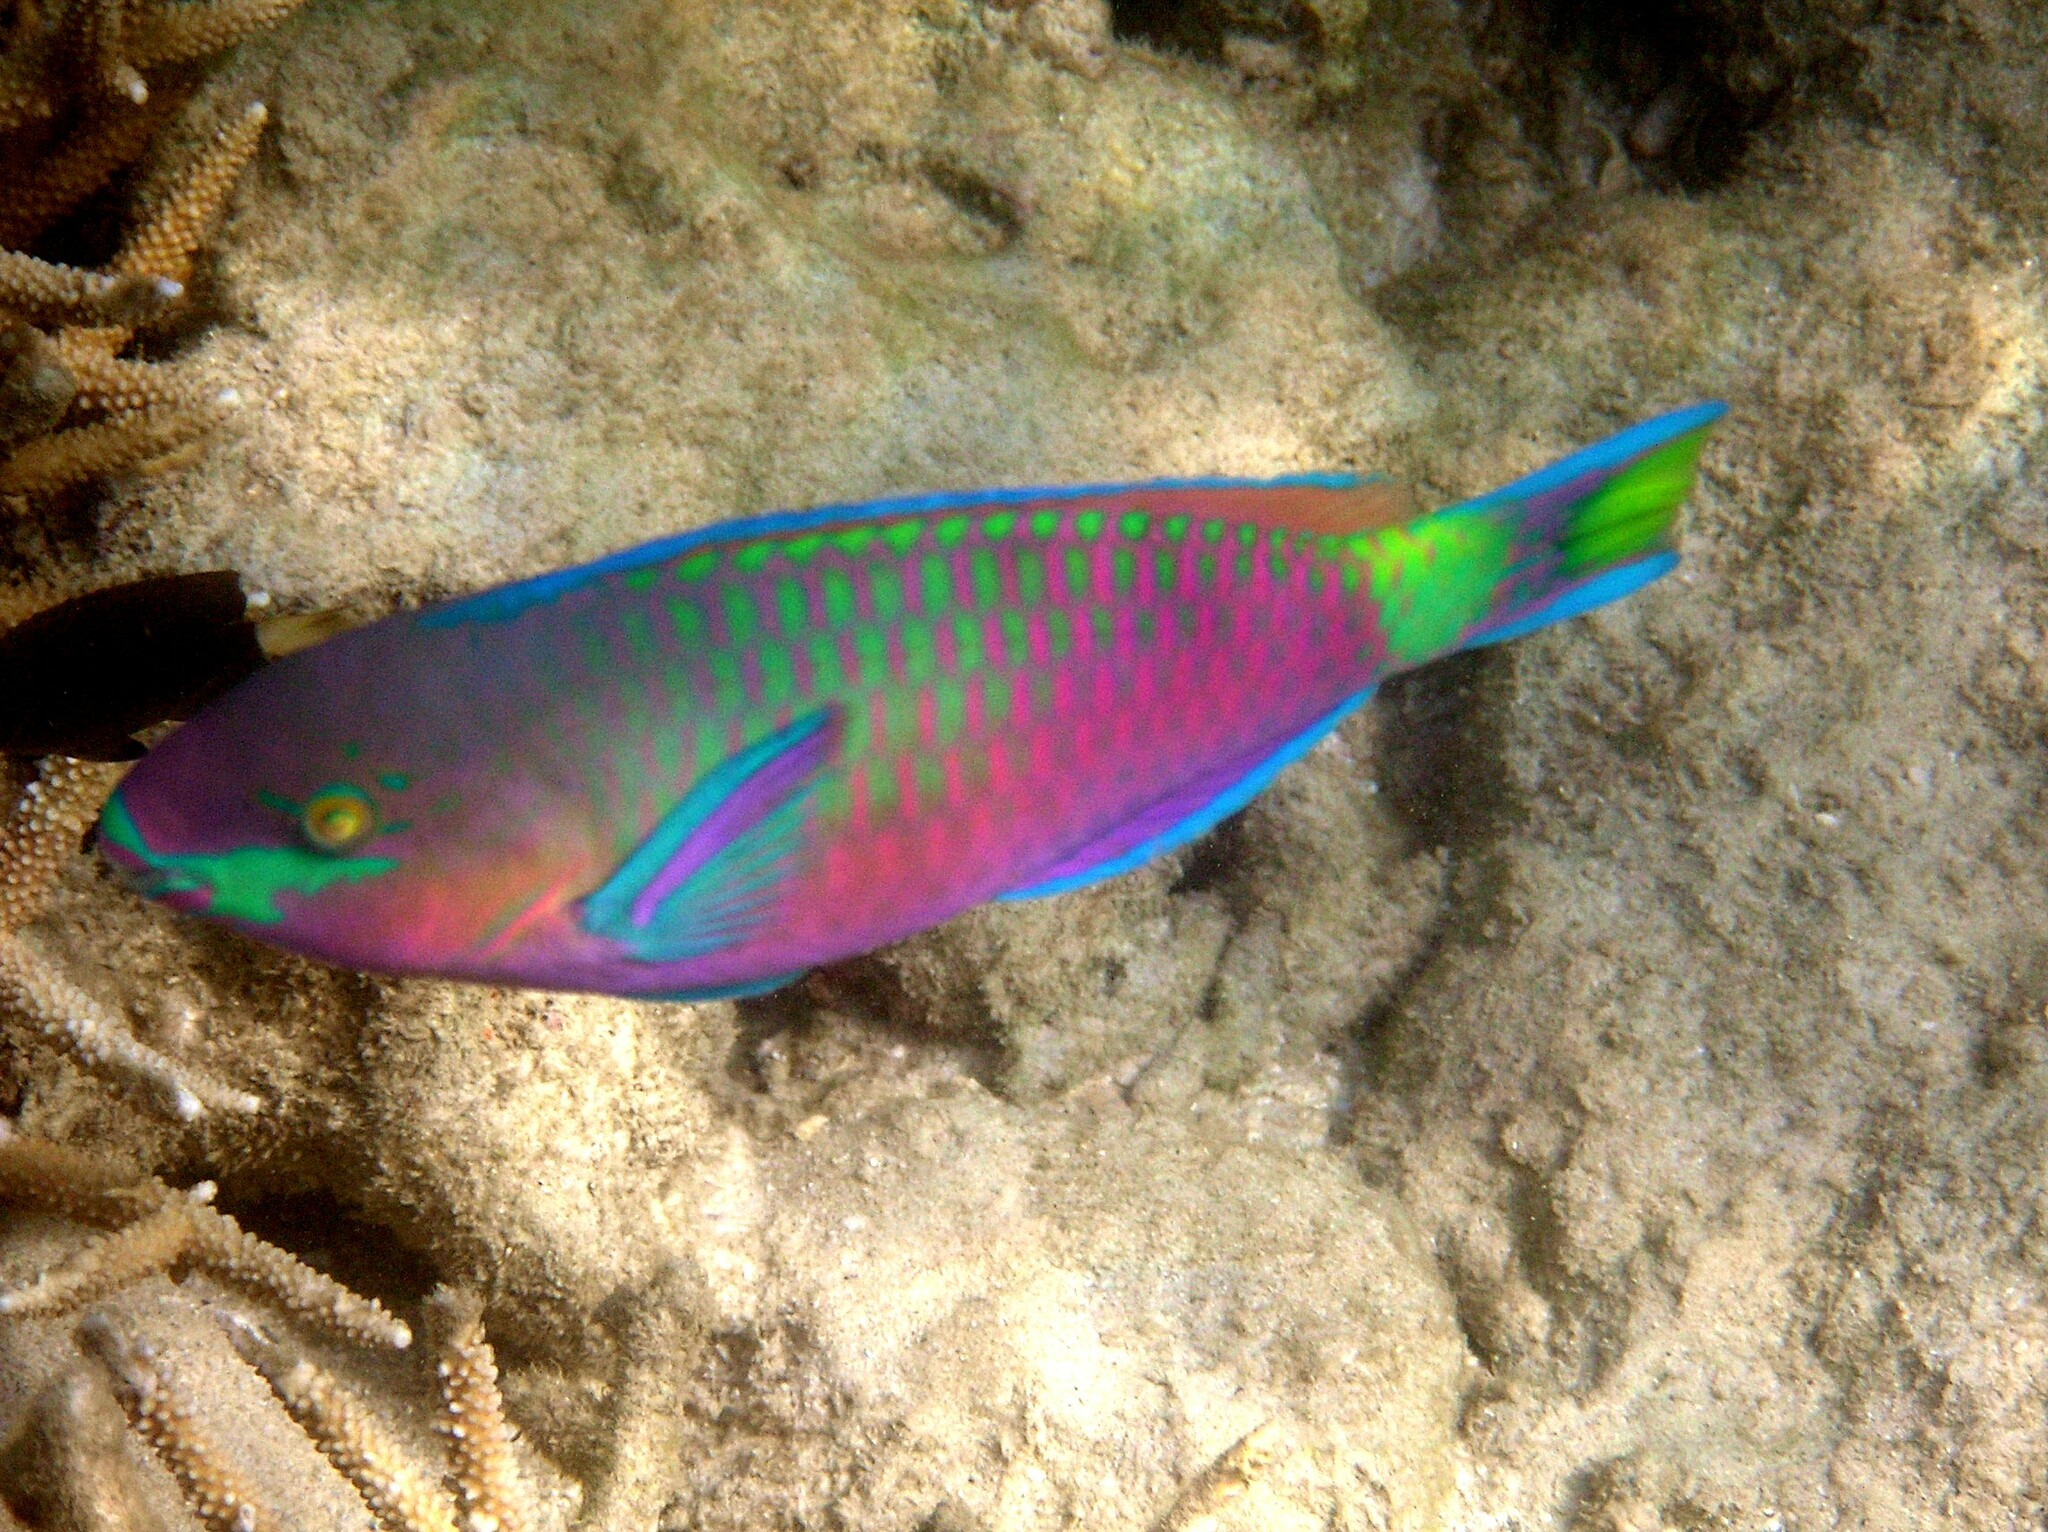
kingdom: Animalia
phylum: Chordata
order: Perciformes
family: Scaridae
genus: Scarus
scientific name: Scarus quoyi
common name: Quoy's parrotfish
